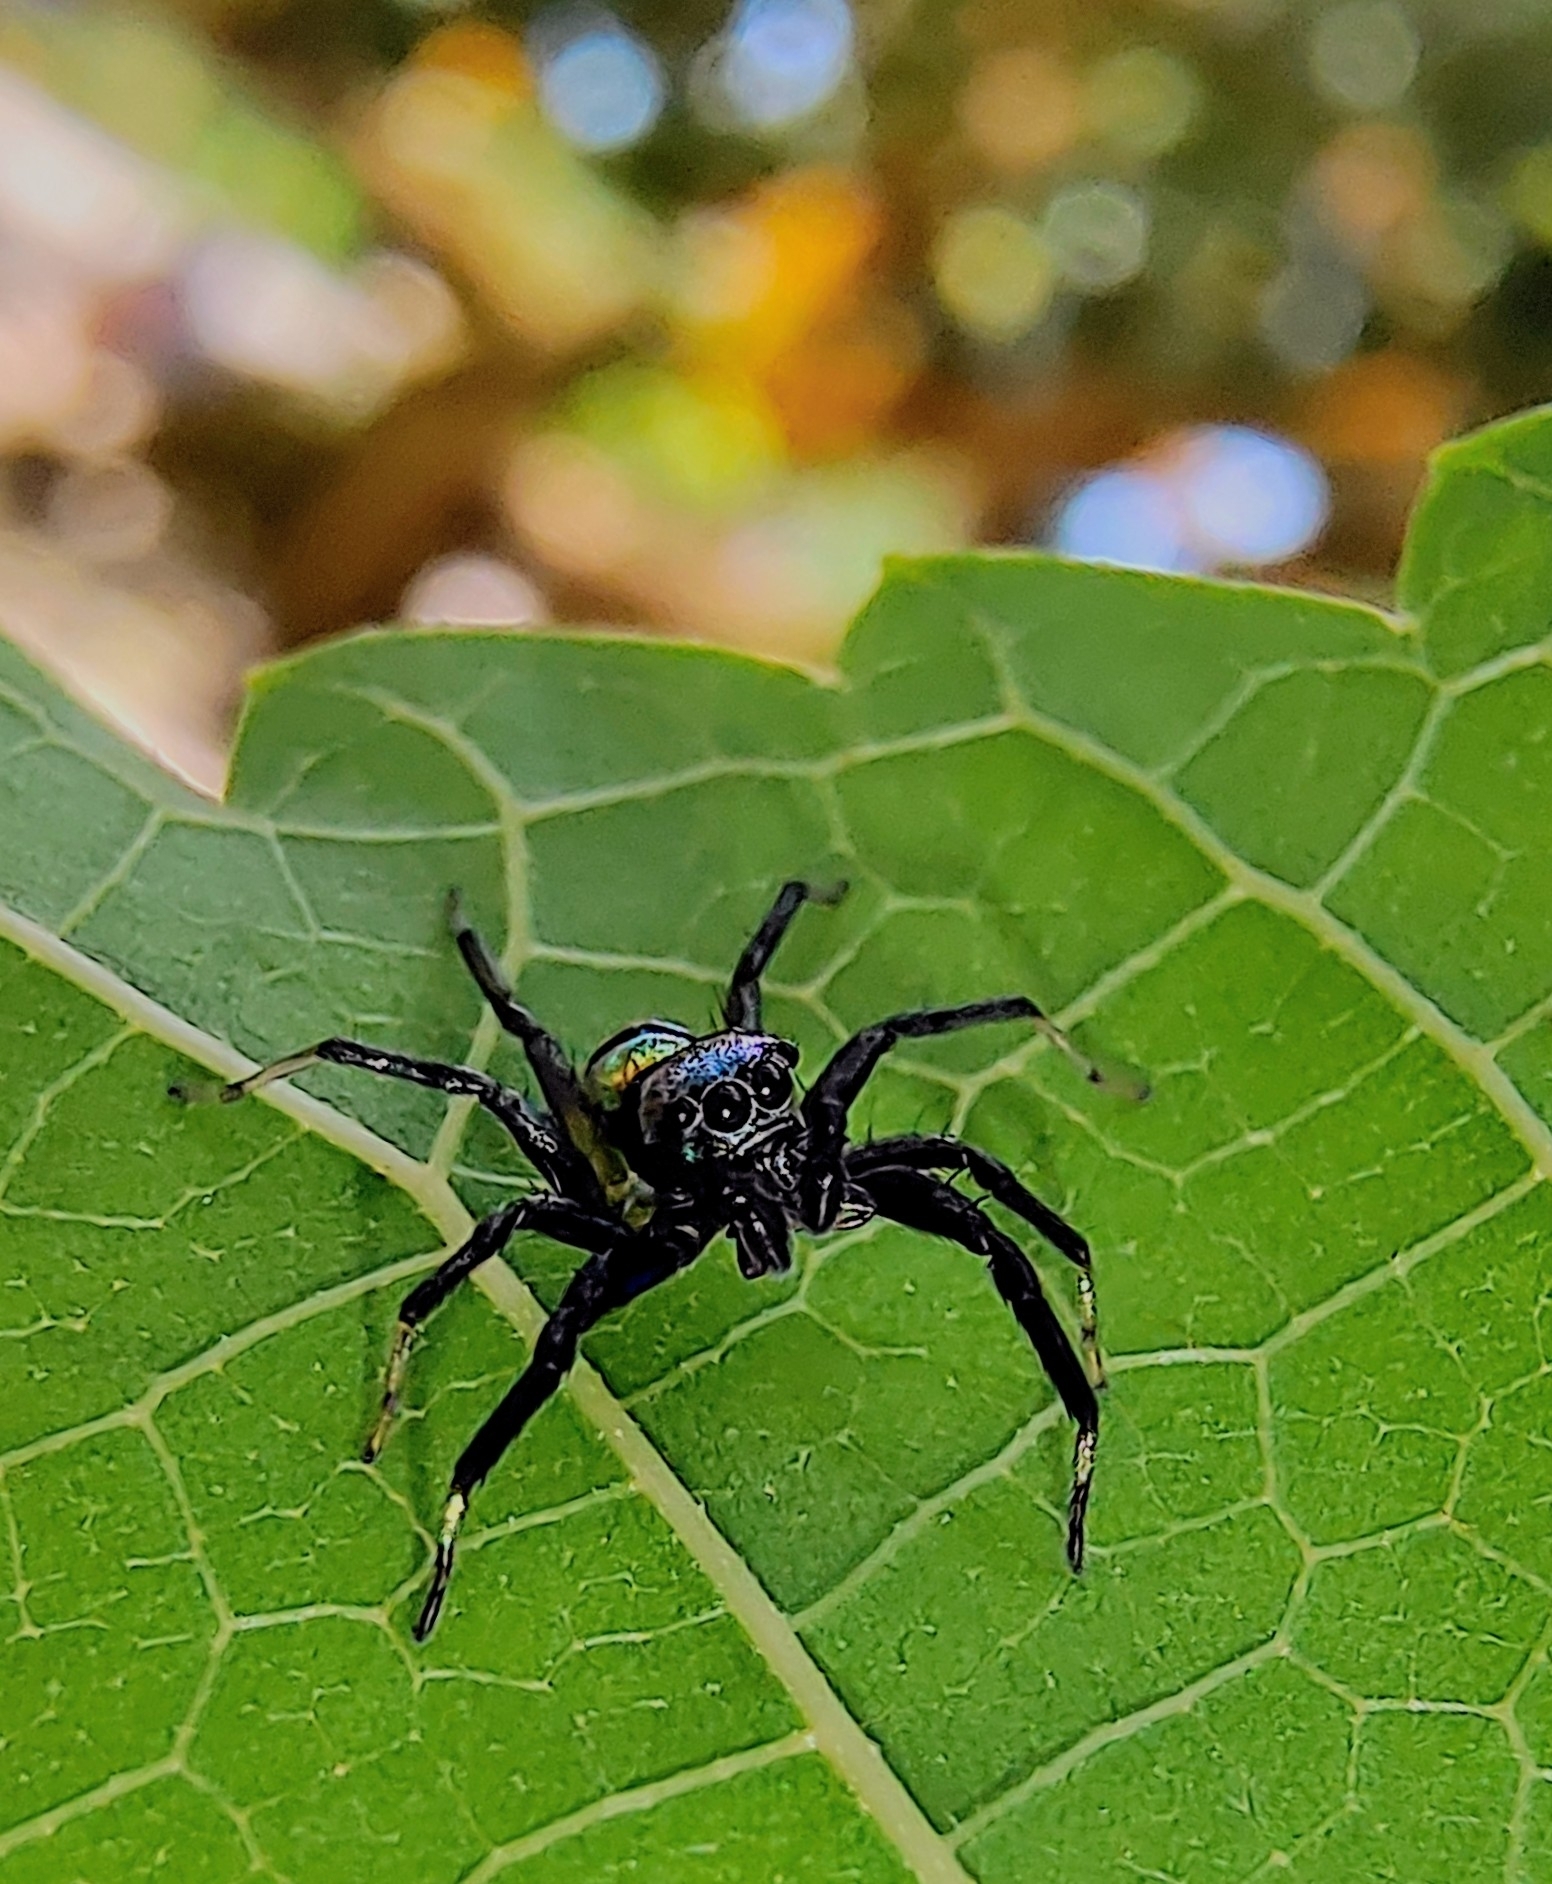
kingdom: Animalia
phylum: Arthropoda
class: Arachnida
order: Araneae
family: Salticidae
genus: Phintella
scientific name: Phintella vittata
